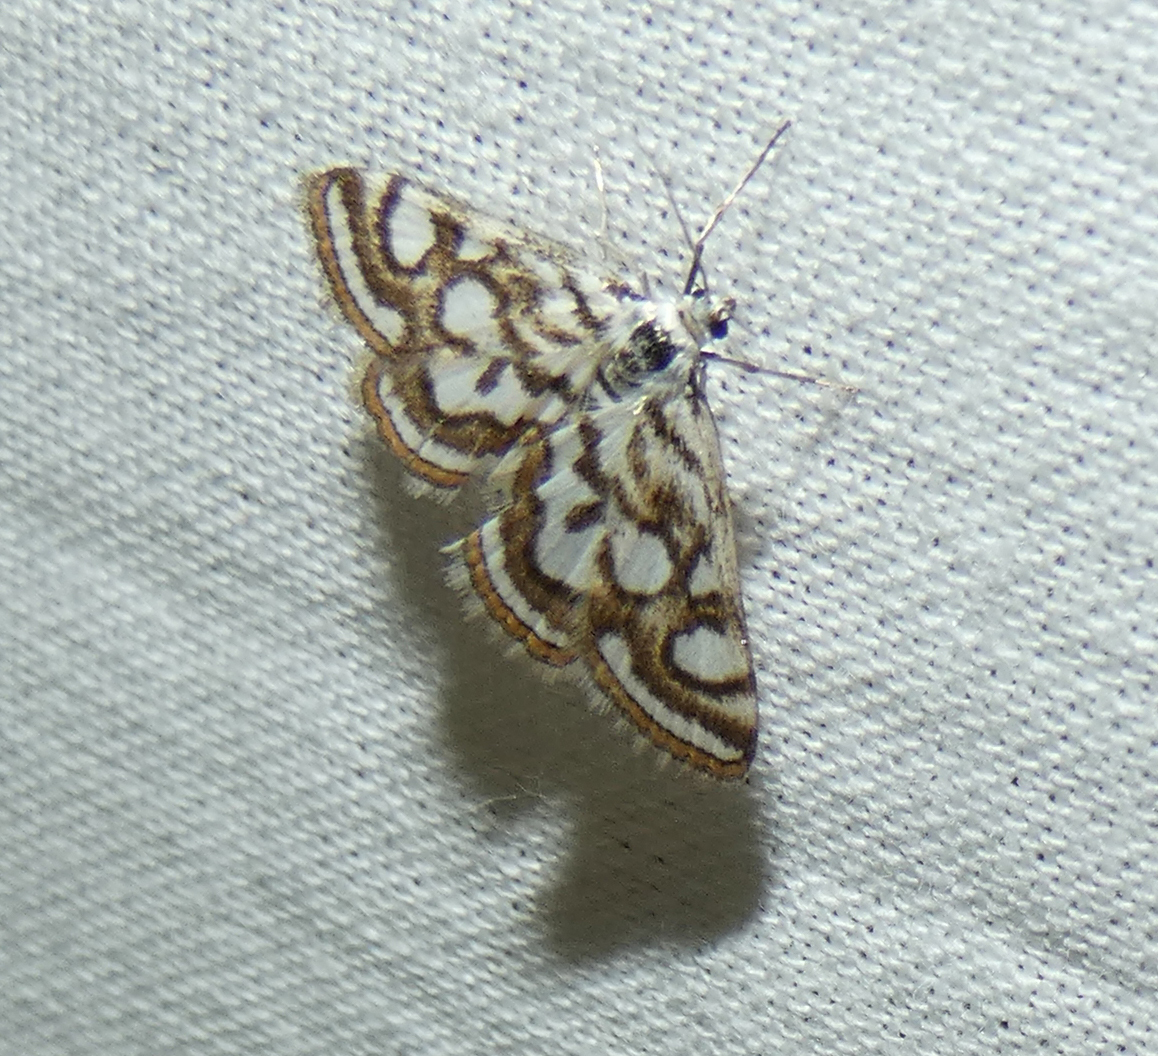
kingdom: Animalia
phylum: Arthropoda
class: Insecta
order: Lepidoptera
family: Crambidae
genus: Nymphula
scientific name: Nymphula nitidulata
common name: Beautiful china mark
